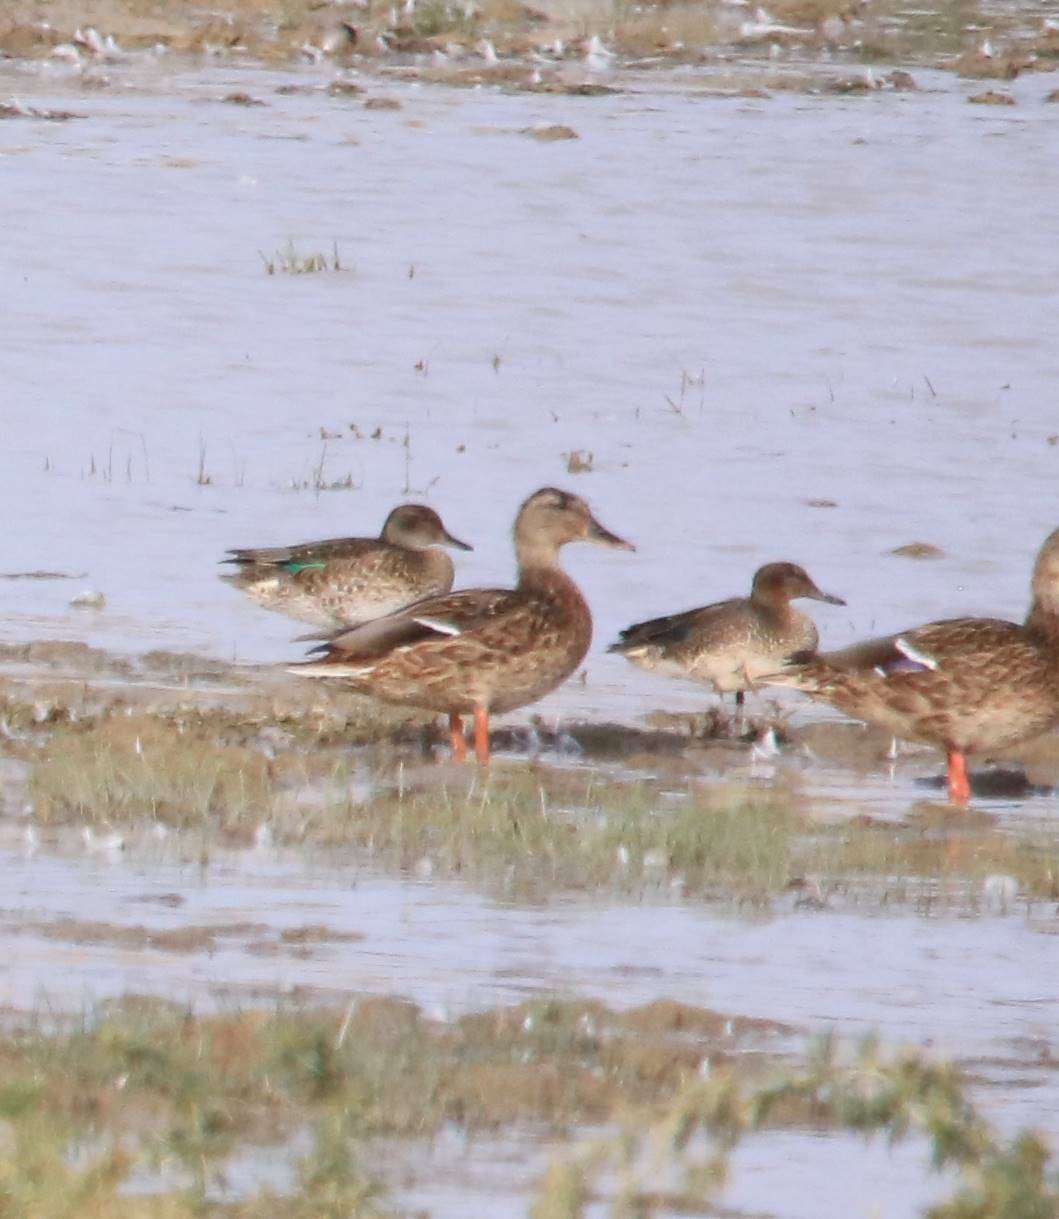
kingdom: Animalia
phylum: Chordata
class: Aves
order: Anseriformes
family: Anatidae
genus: Anas
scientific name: Anas crecca
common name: Eurasian teal
